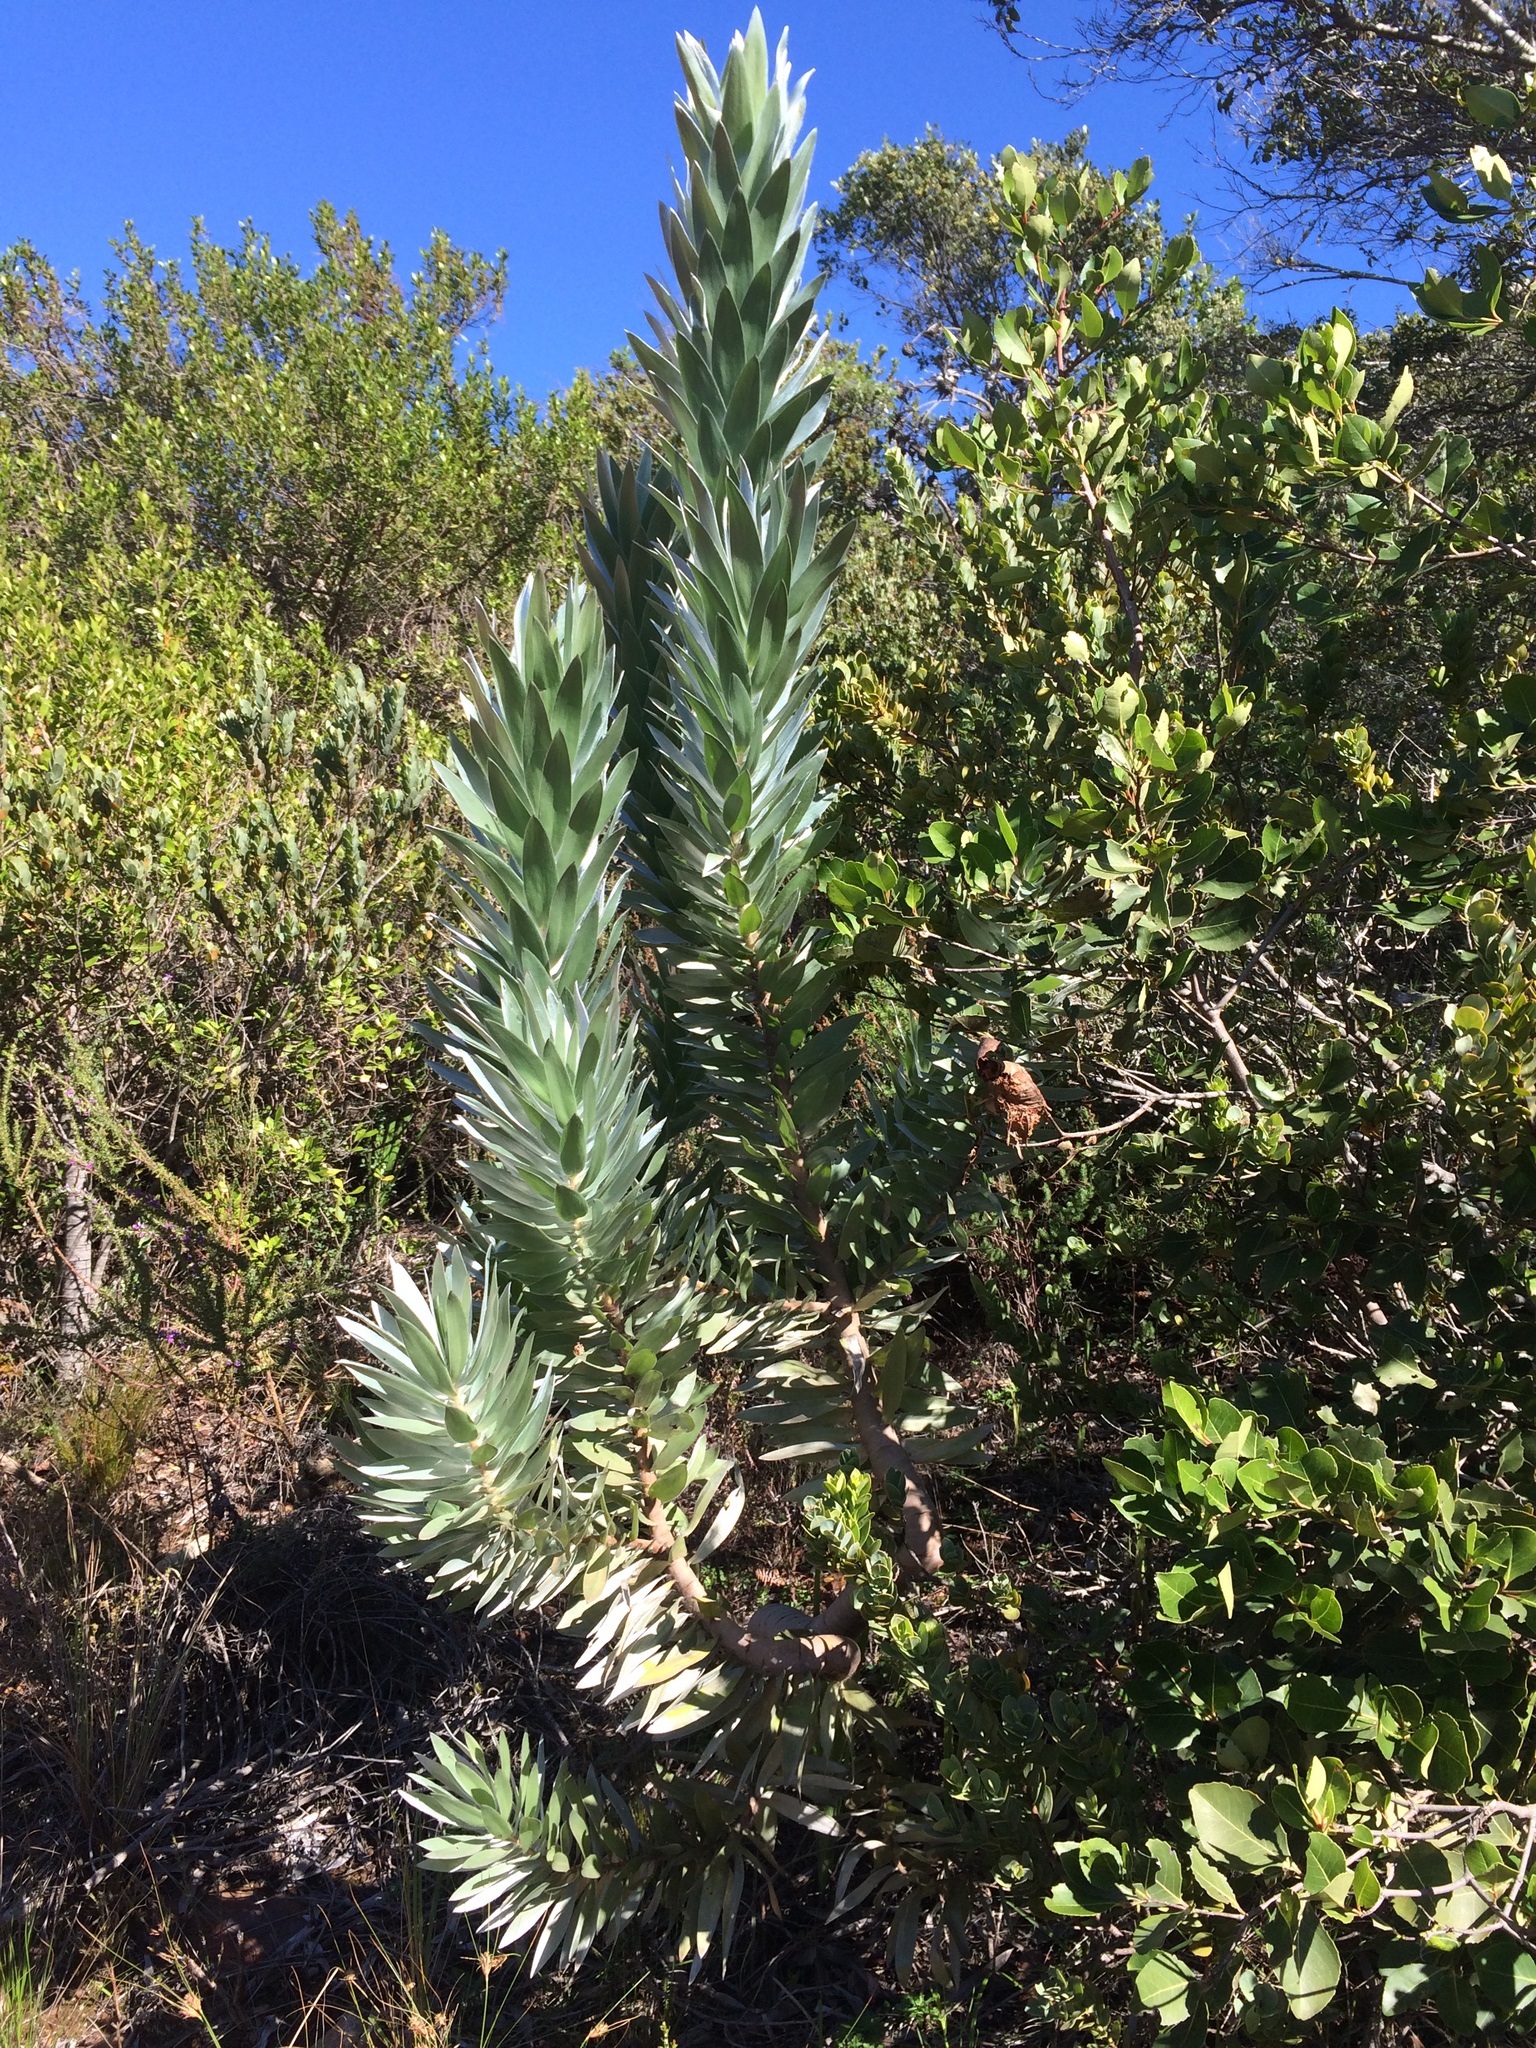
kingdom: Plantae
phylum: Tracheophyta
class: Magnoliopsida
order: Proteales
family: Proteaceae
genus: Leucadendron
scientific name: Leucadendron argenteum
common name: Cape silver tree
